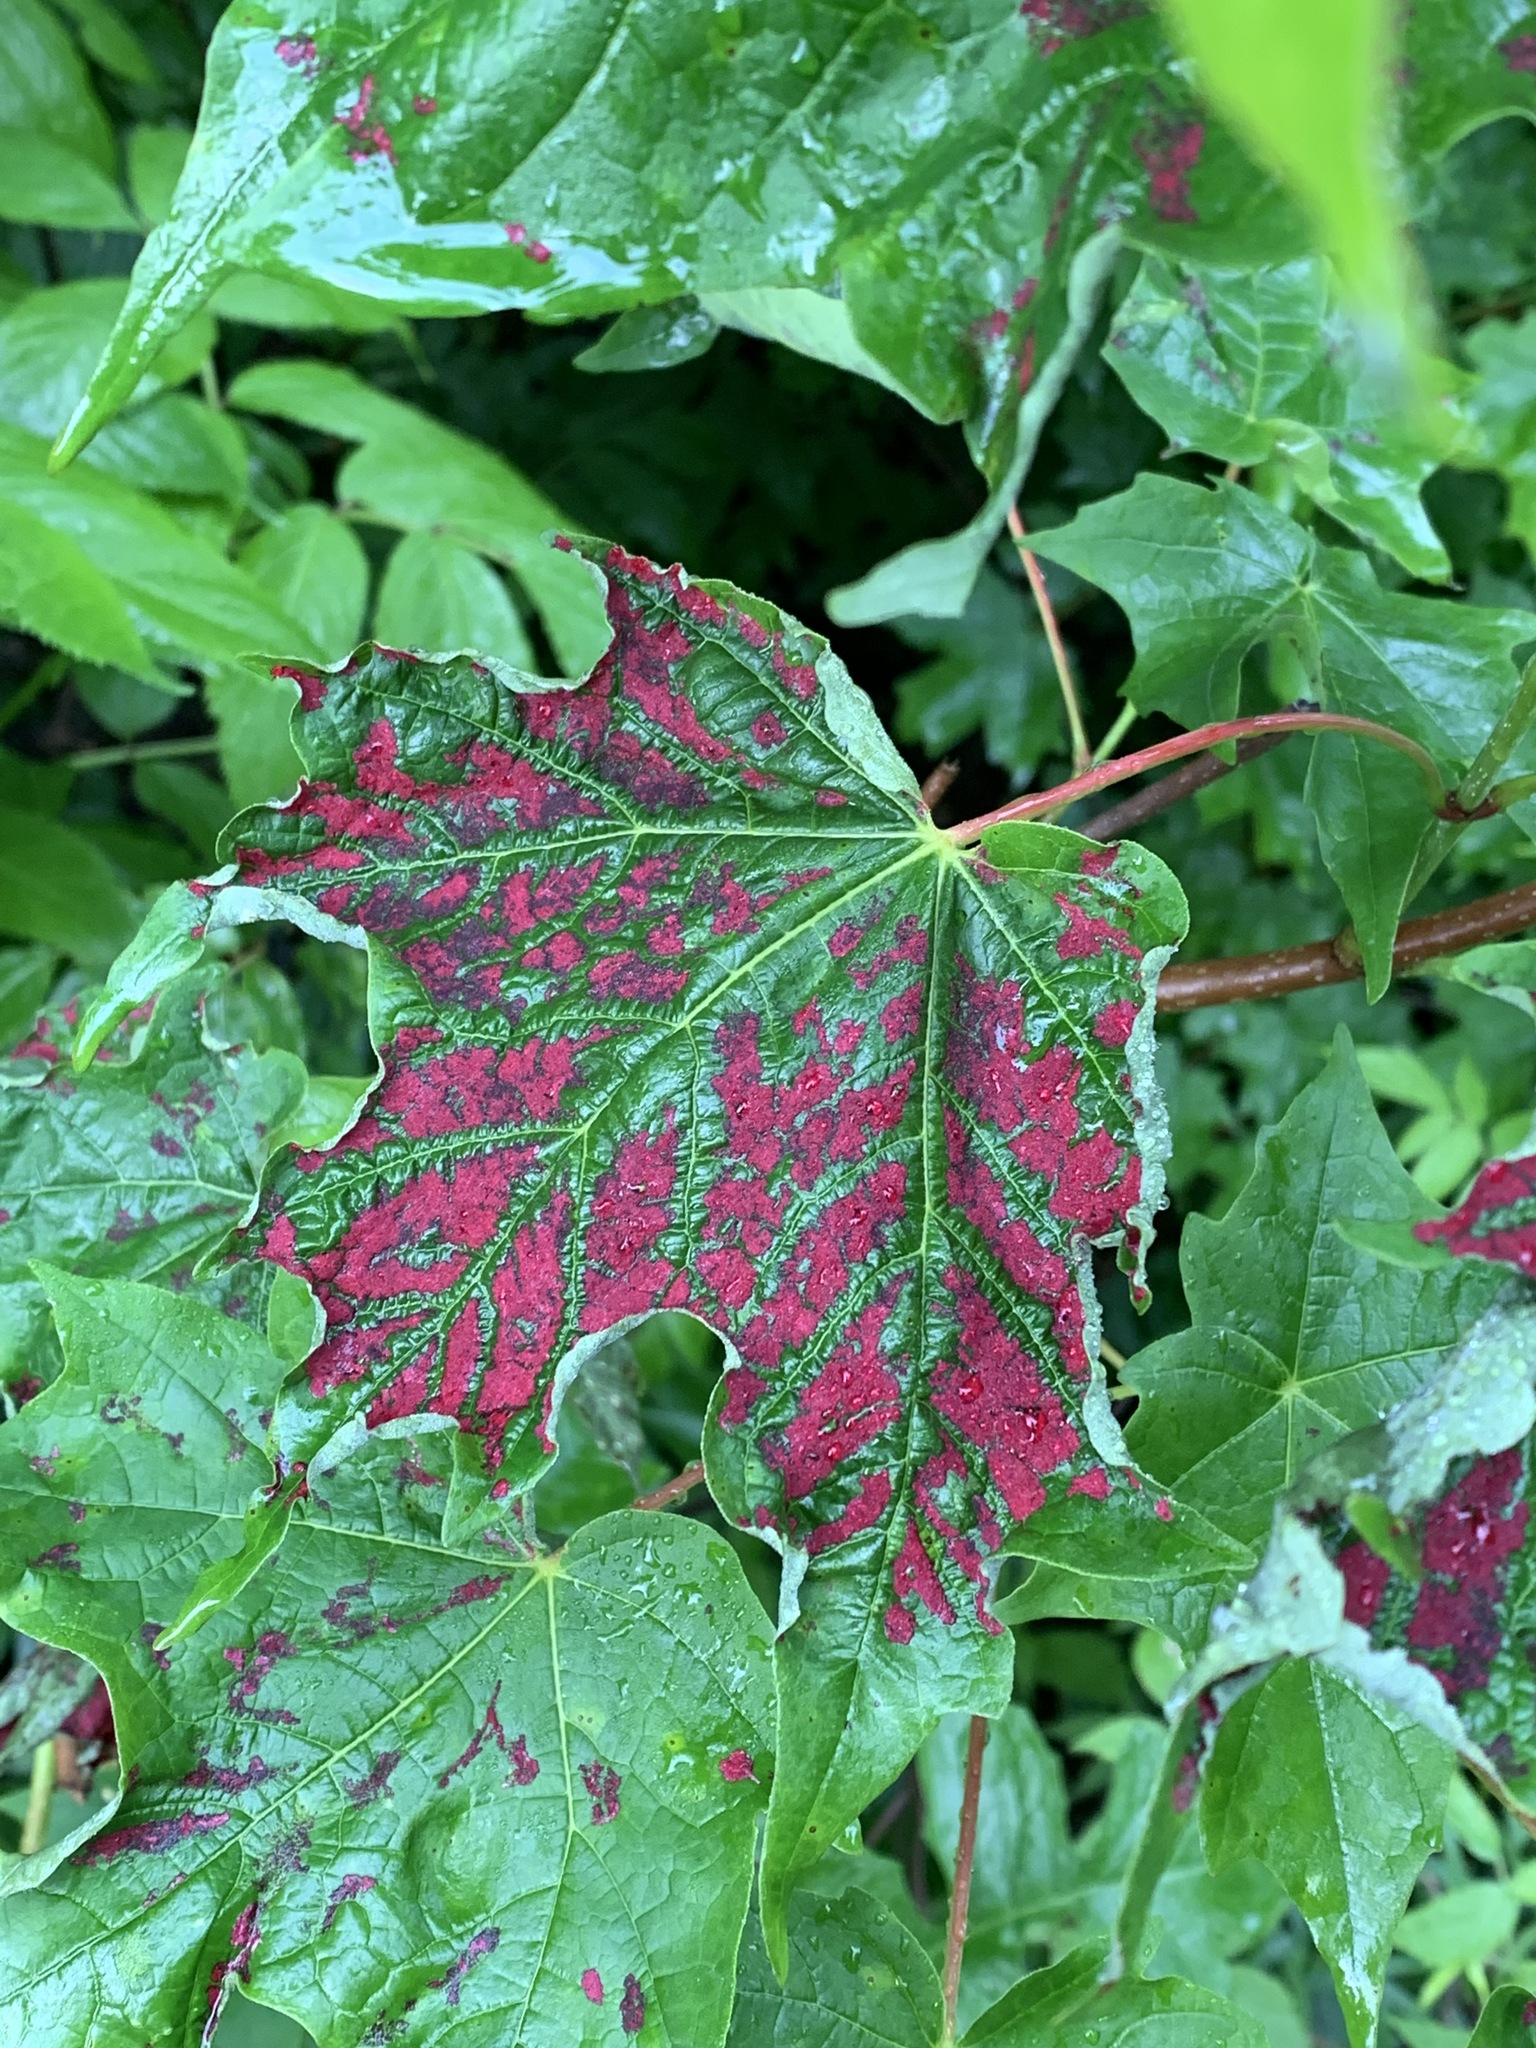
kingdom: Animalia
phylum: Arthropoda
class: Arachnida
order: Trombidiformes
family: Eriophyidae
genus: Aceria
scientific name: Aceria
